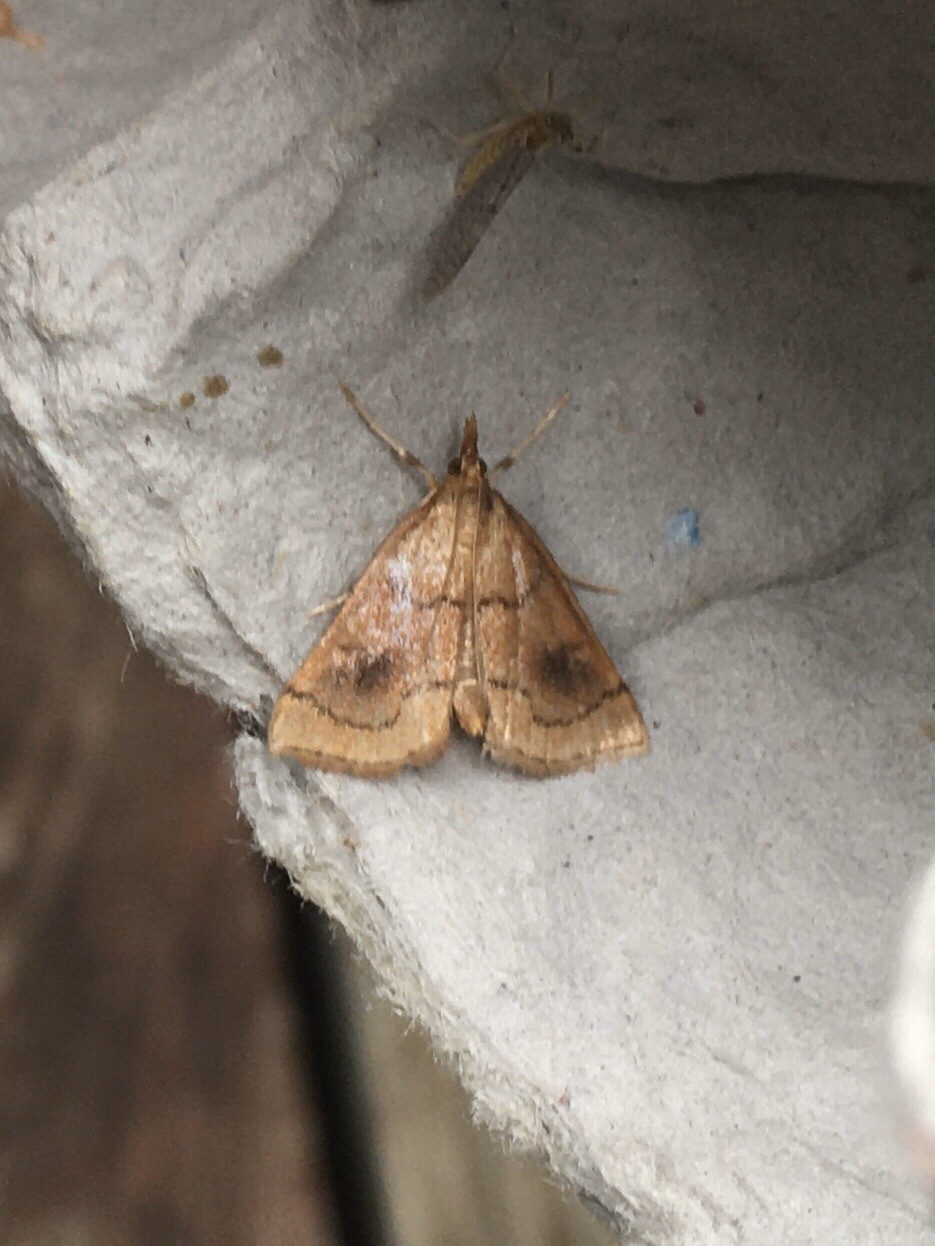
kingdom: Animalia
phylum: Arthropoda
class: Insecta
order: Lepidoptera
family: Crambidae
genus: Fumibotys
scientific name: Fumibotys fumalis
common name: Mint root borer moth
